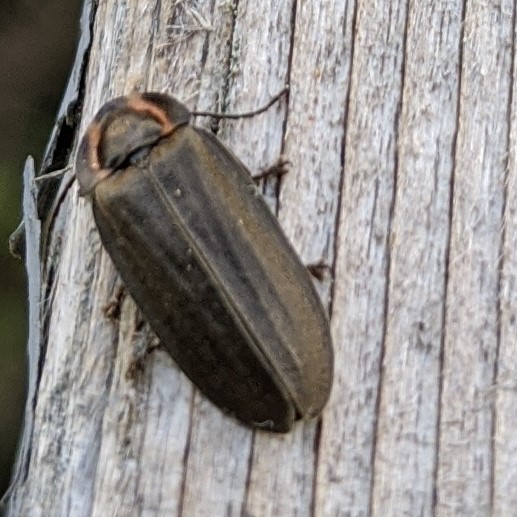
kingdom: Animalia
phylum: Arthropoda
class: Insecta
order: Coleoptera
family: Lampyridae
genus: Photinus
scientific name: Photinus corrusca
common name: Winter firefly
